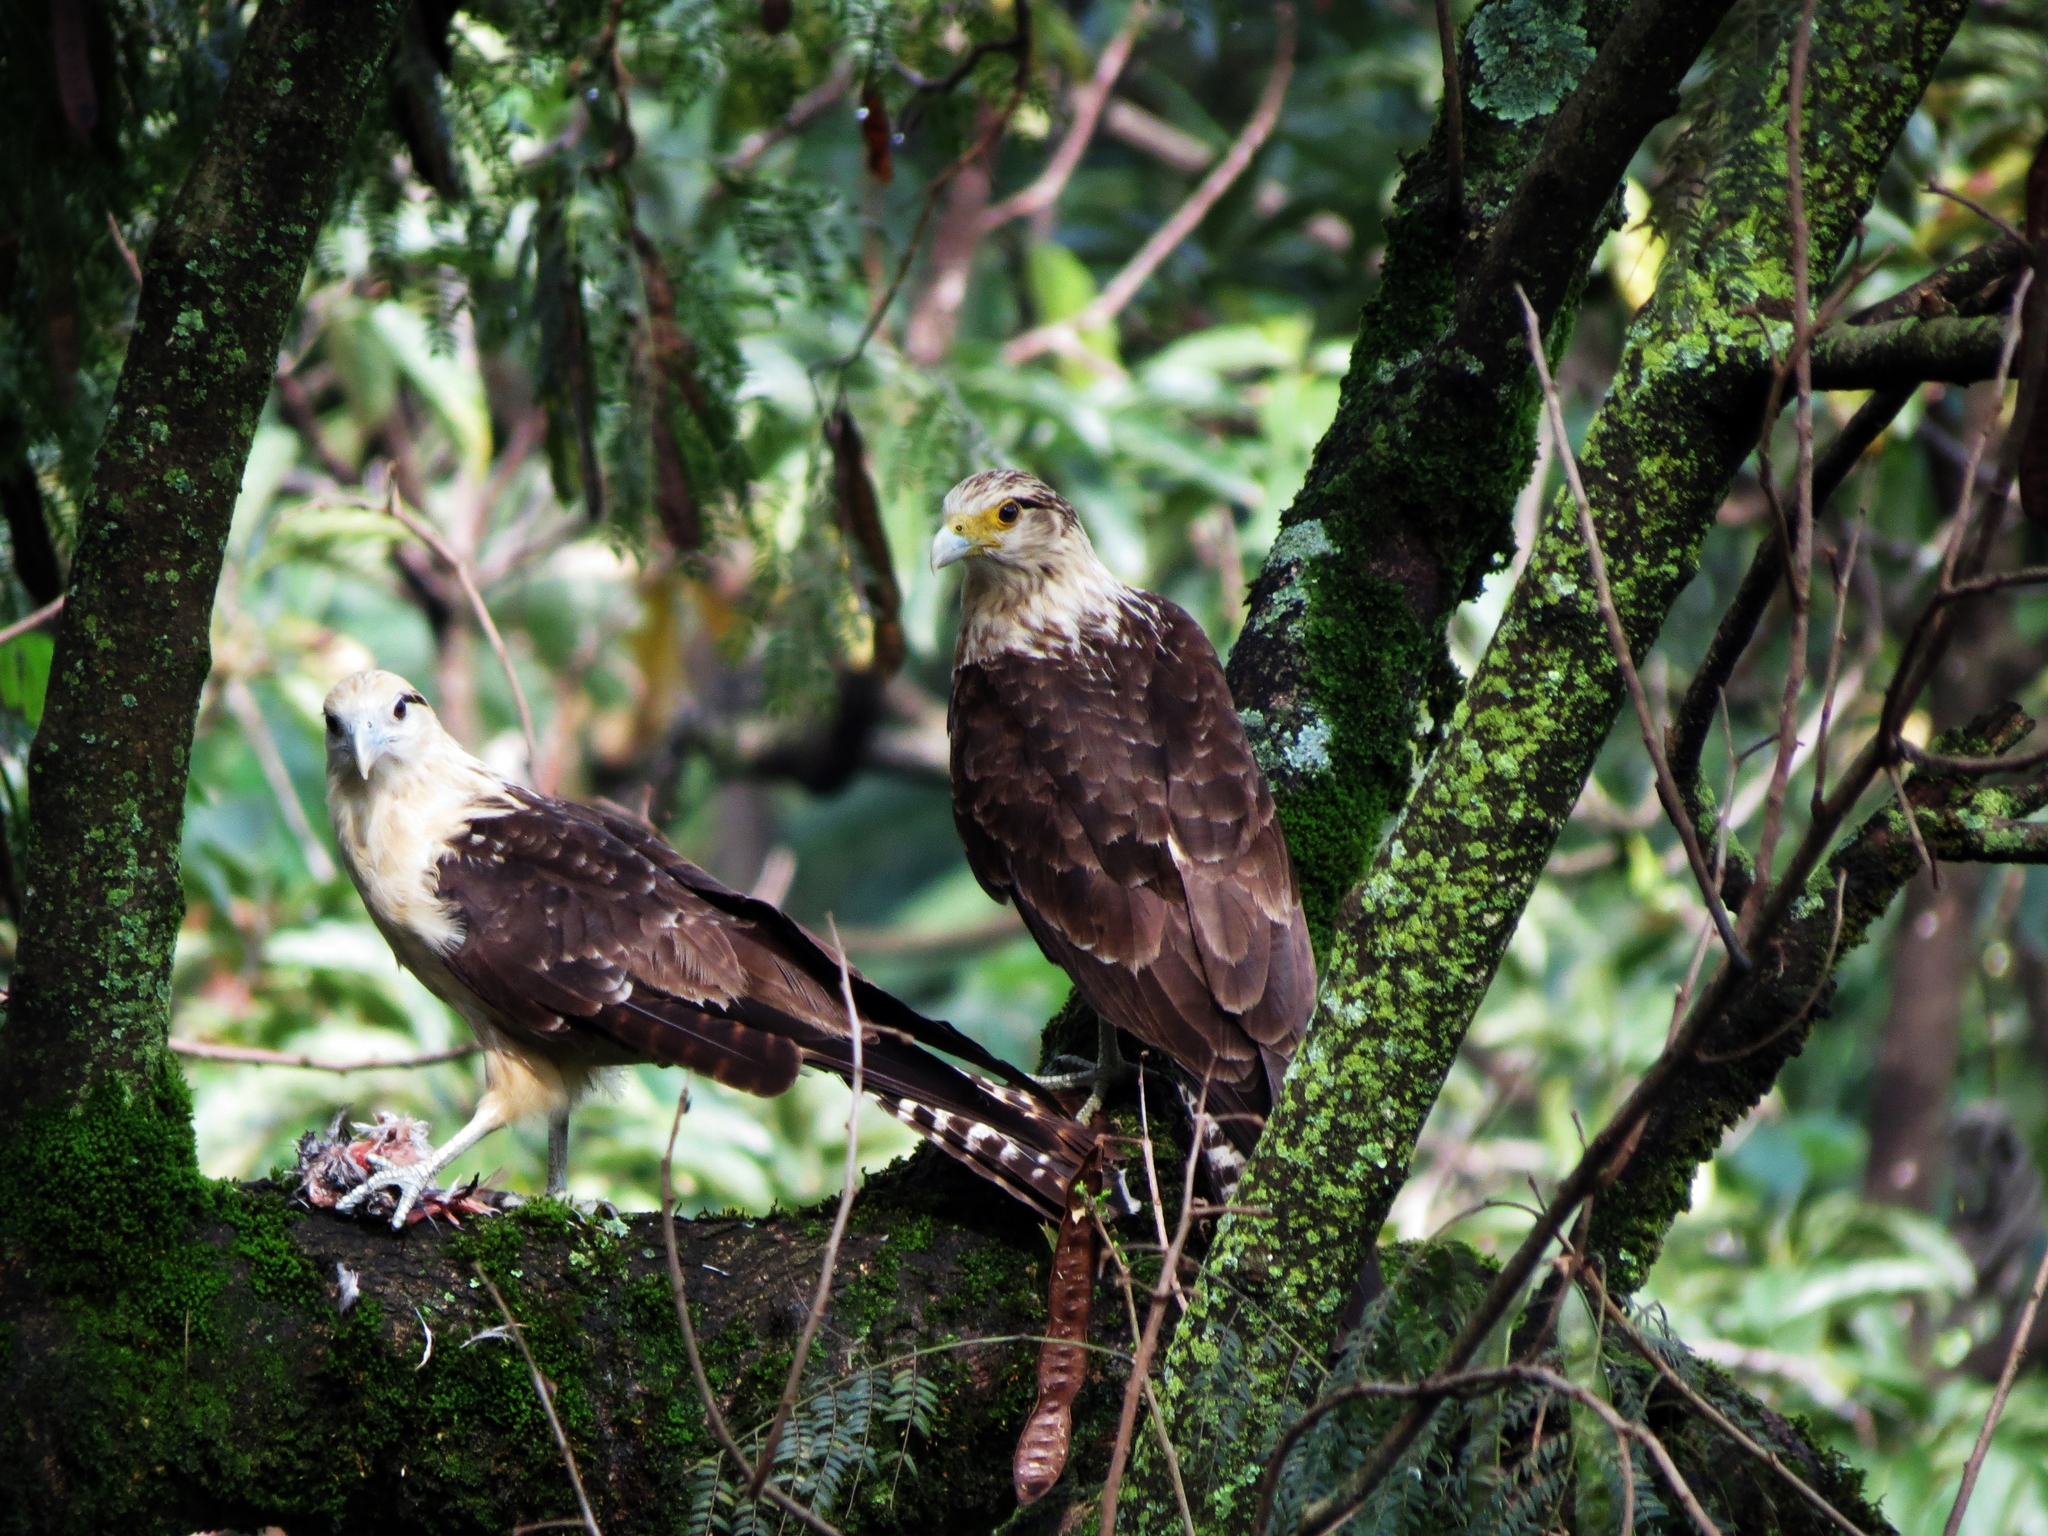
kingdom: Animalia
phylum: Chordata
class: Aves
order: Falconiformes
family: Falconidae
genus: Daptrius
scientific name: Daptrius
